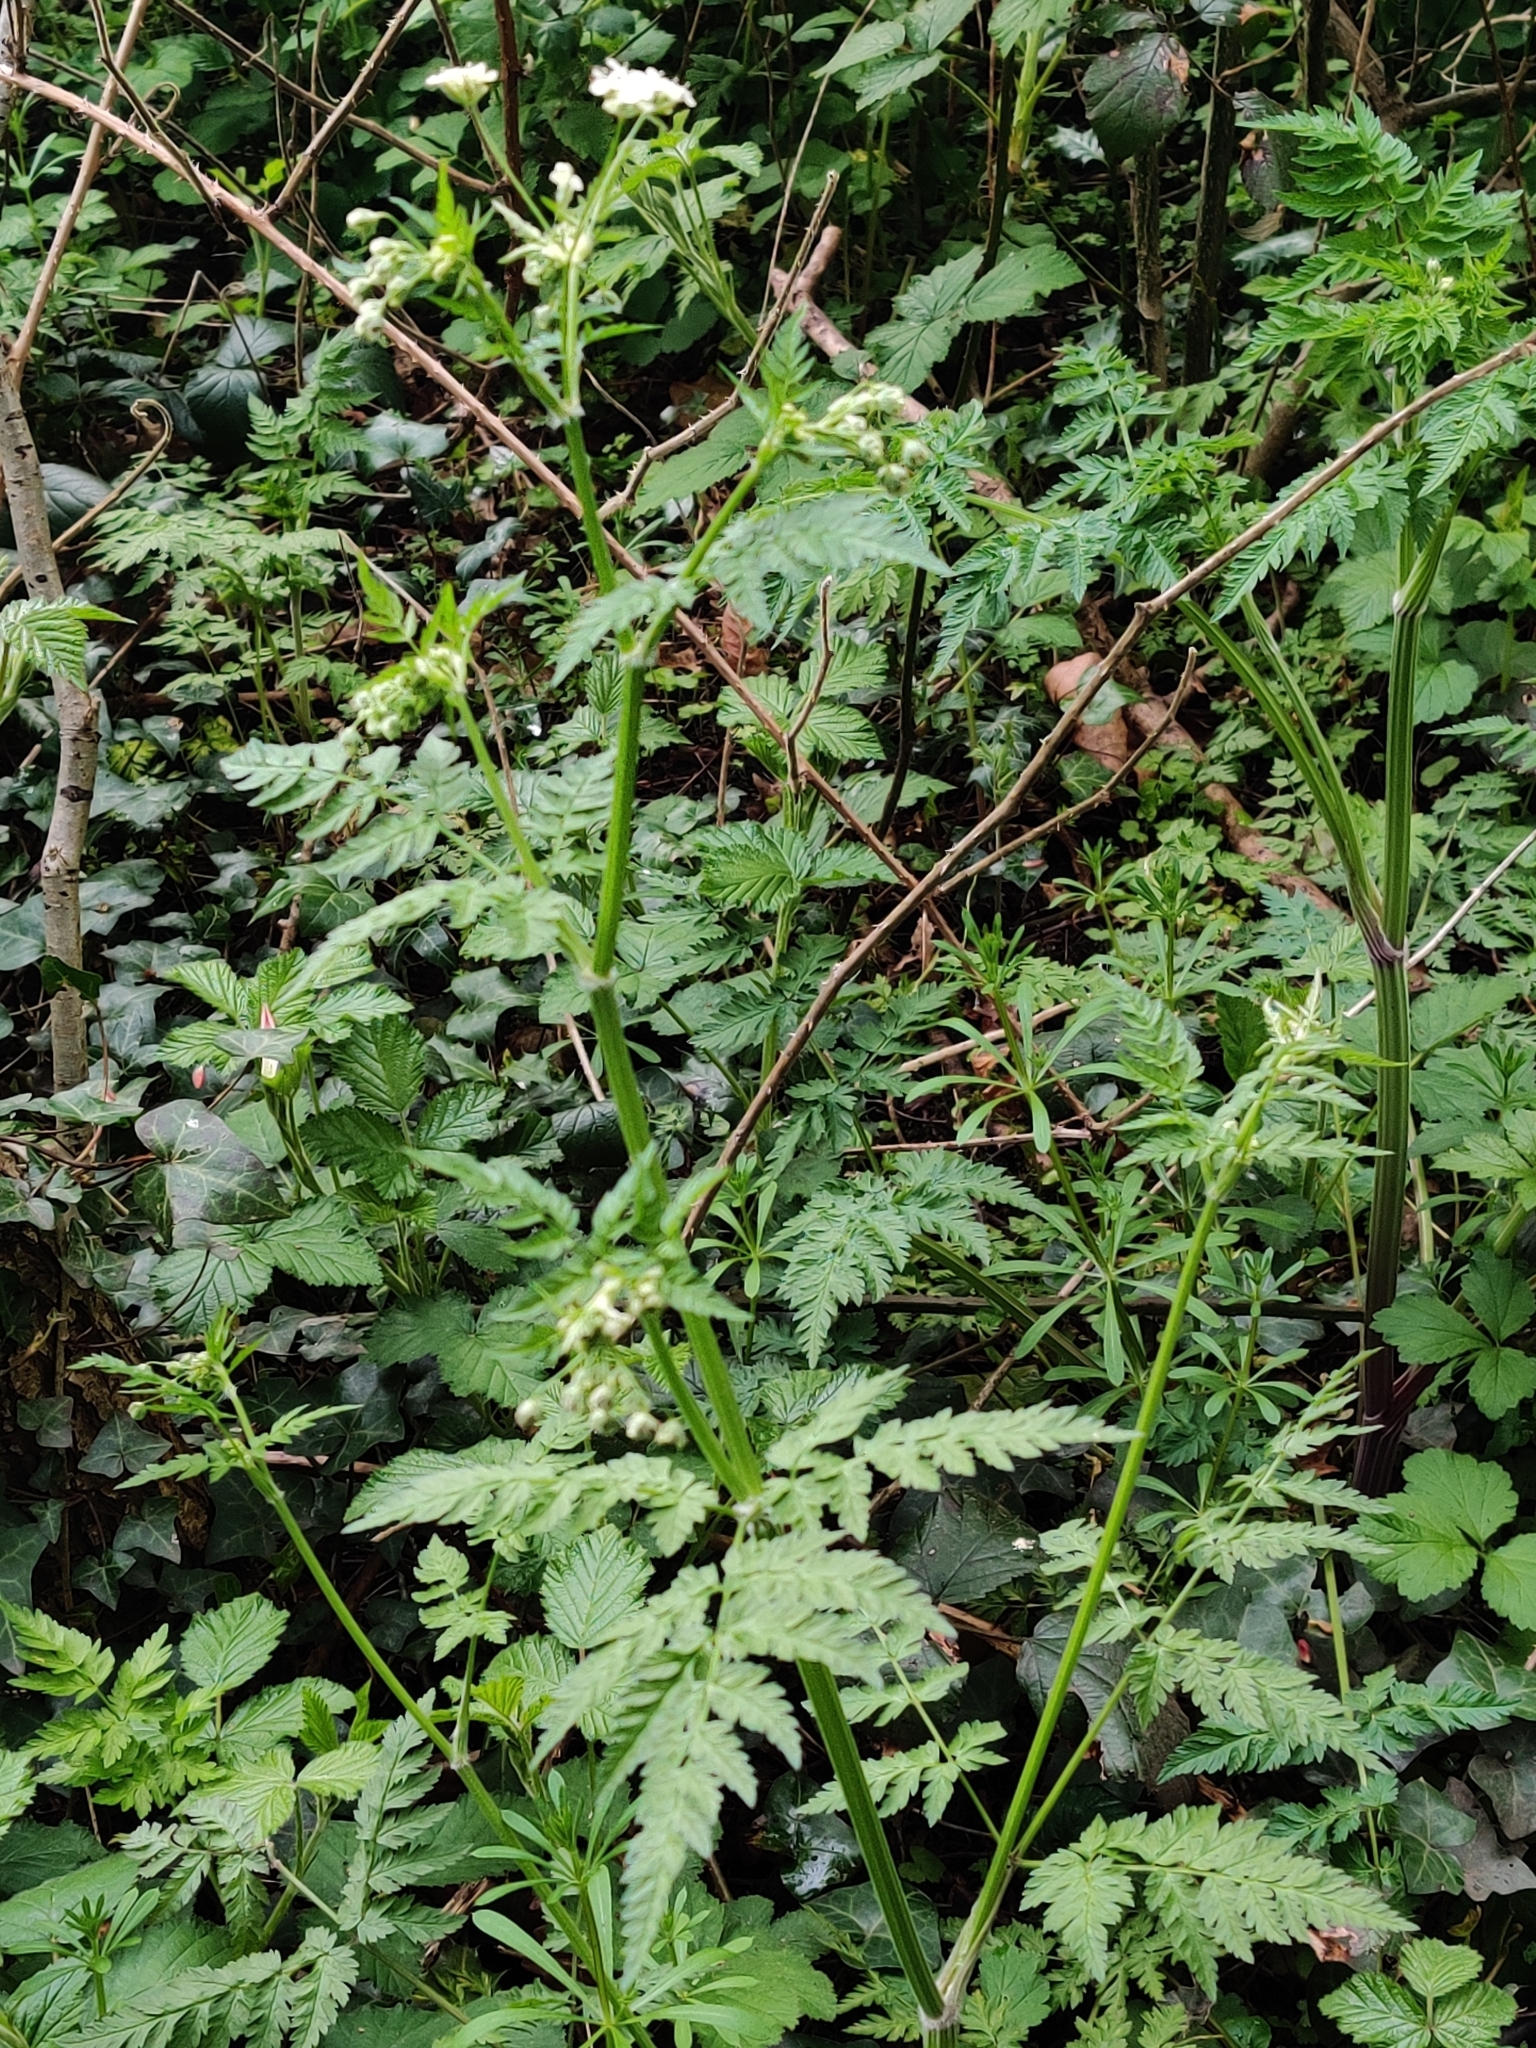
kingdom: Plantae
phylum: Tracheophyta
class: Magnoliopsida
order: Apiales
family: Apiaceae
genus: Anthriscus
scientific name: Anthriscus sylvestris
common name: Cow parsley
